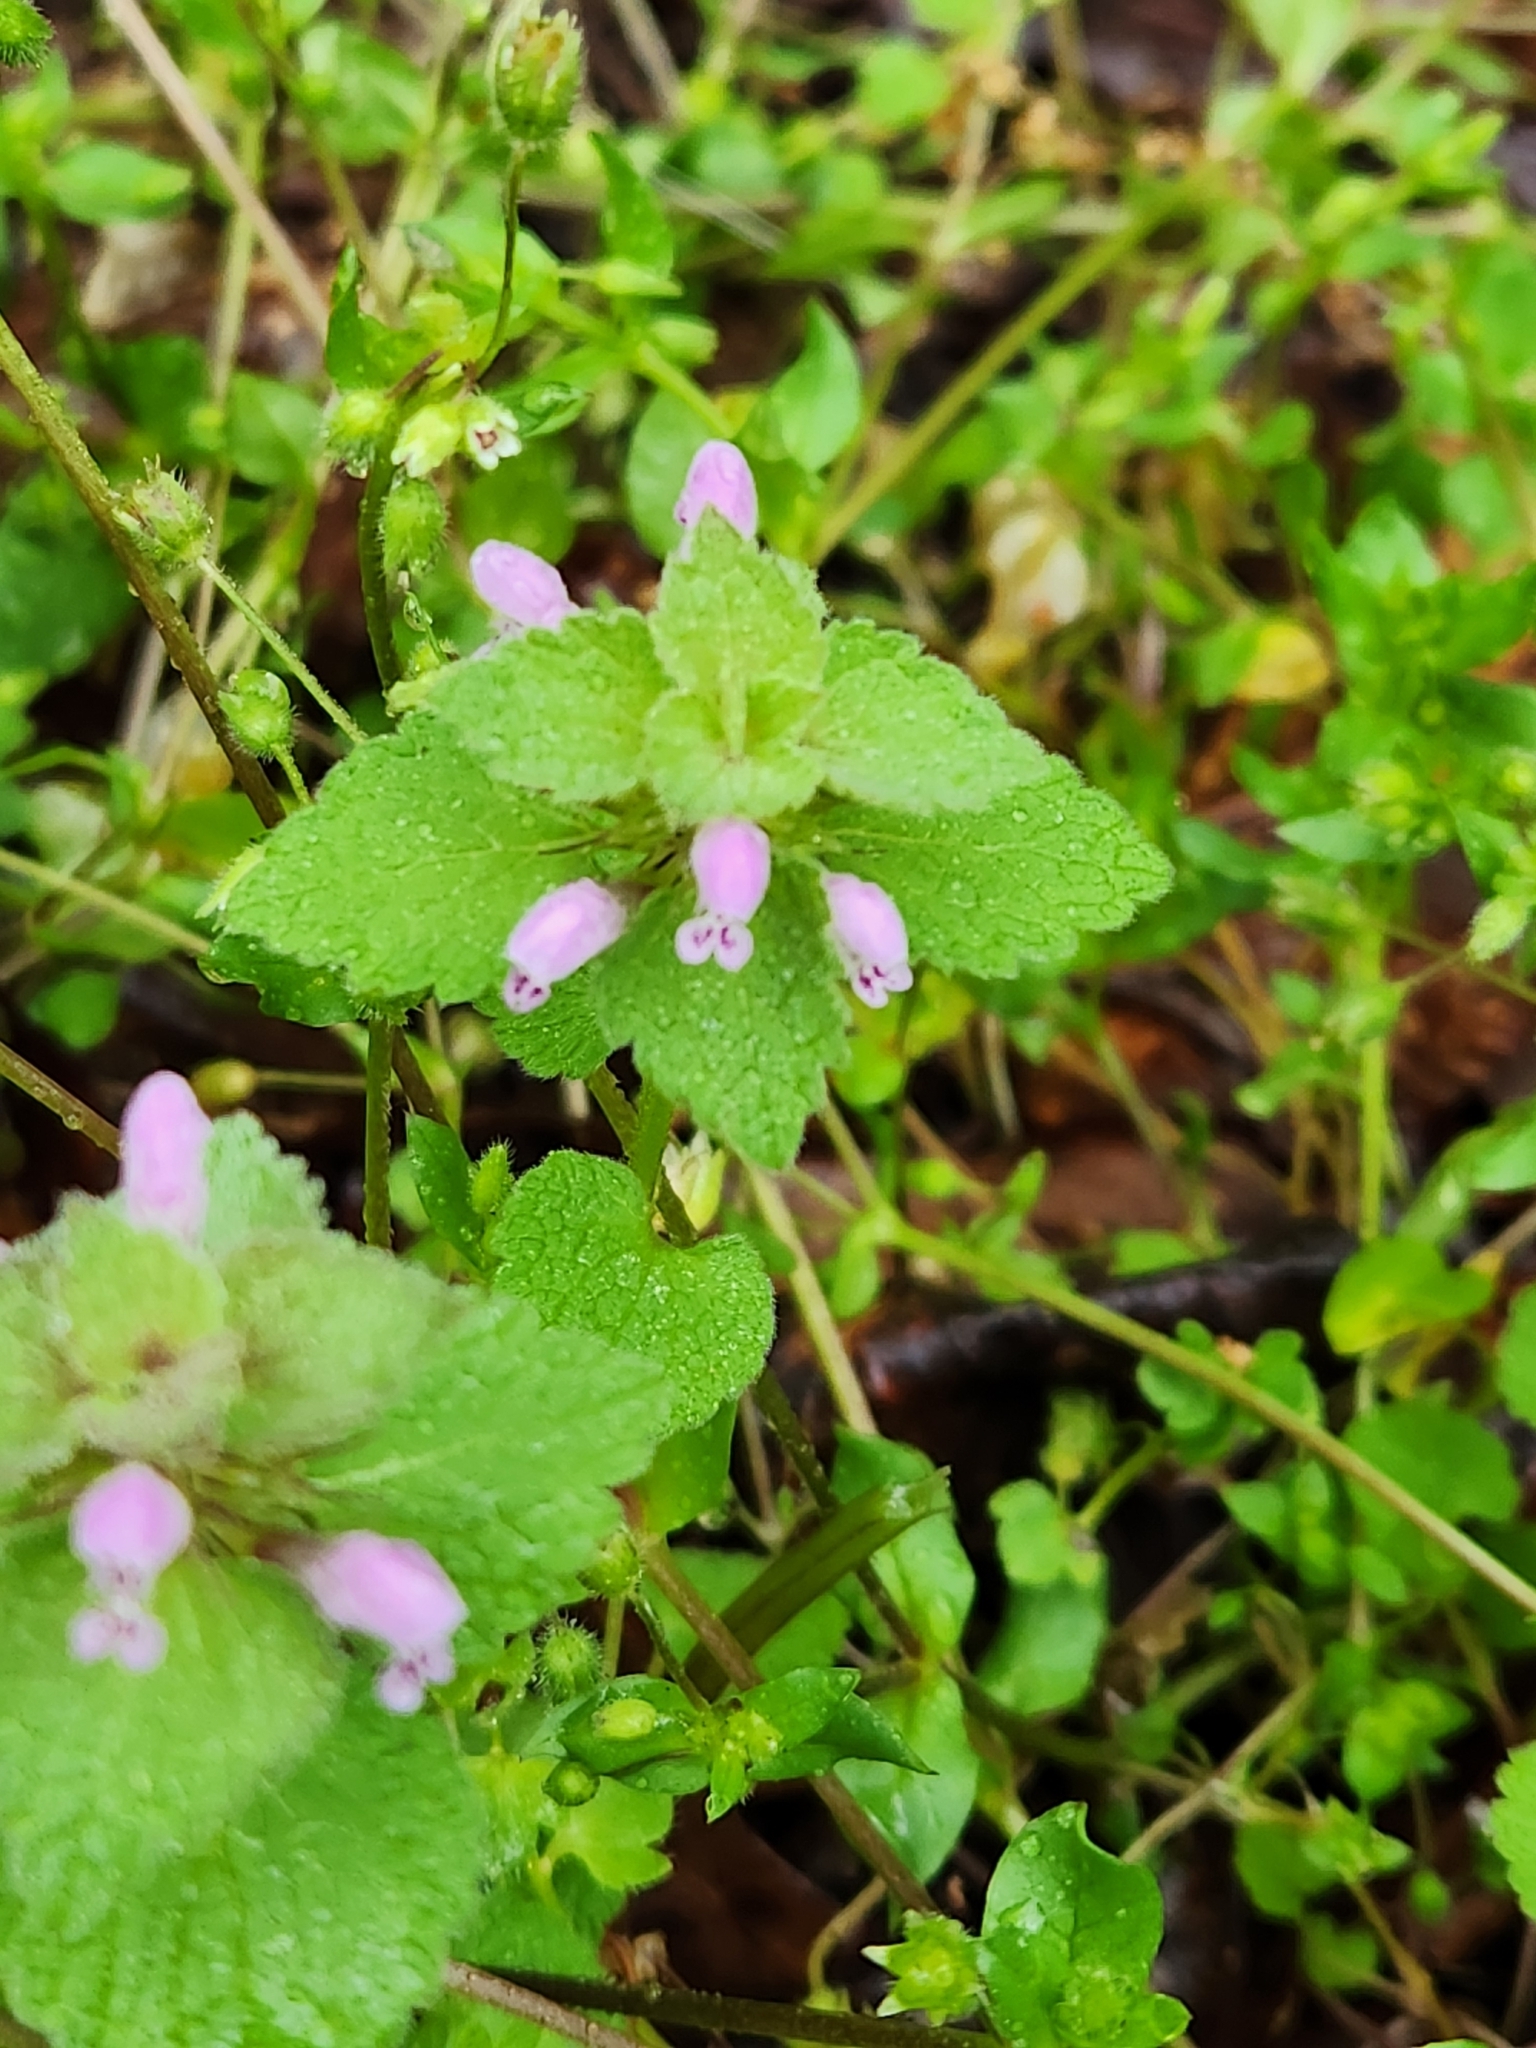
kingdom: Plantae
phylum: Tracheophyta
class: Magnoliopsida
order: Lamiales
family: Lamiaceae
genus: Lamium
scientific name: Lamium purpureum
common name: Red dead-nettle
